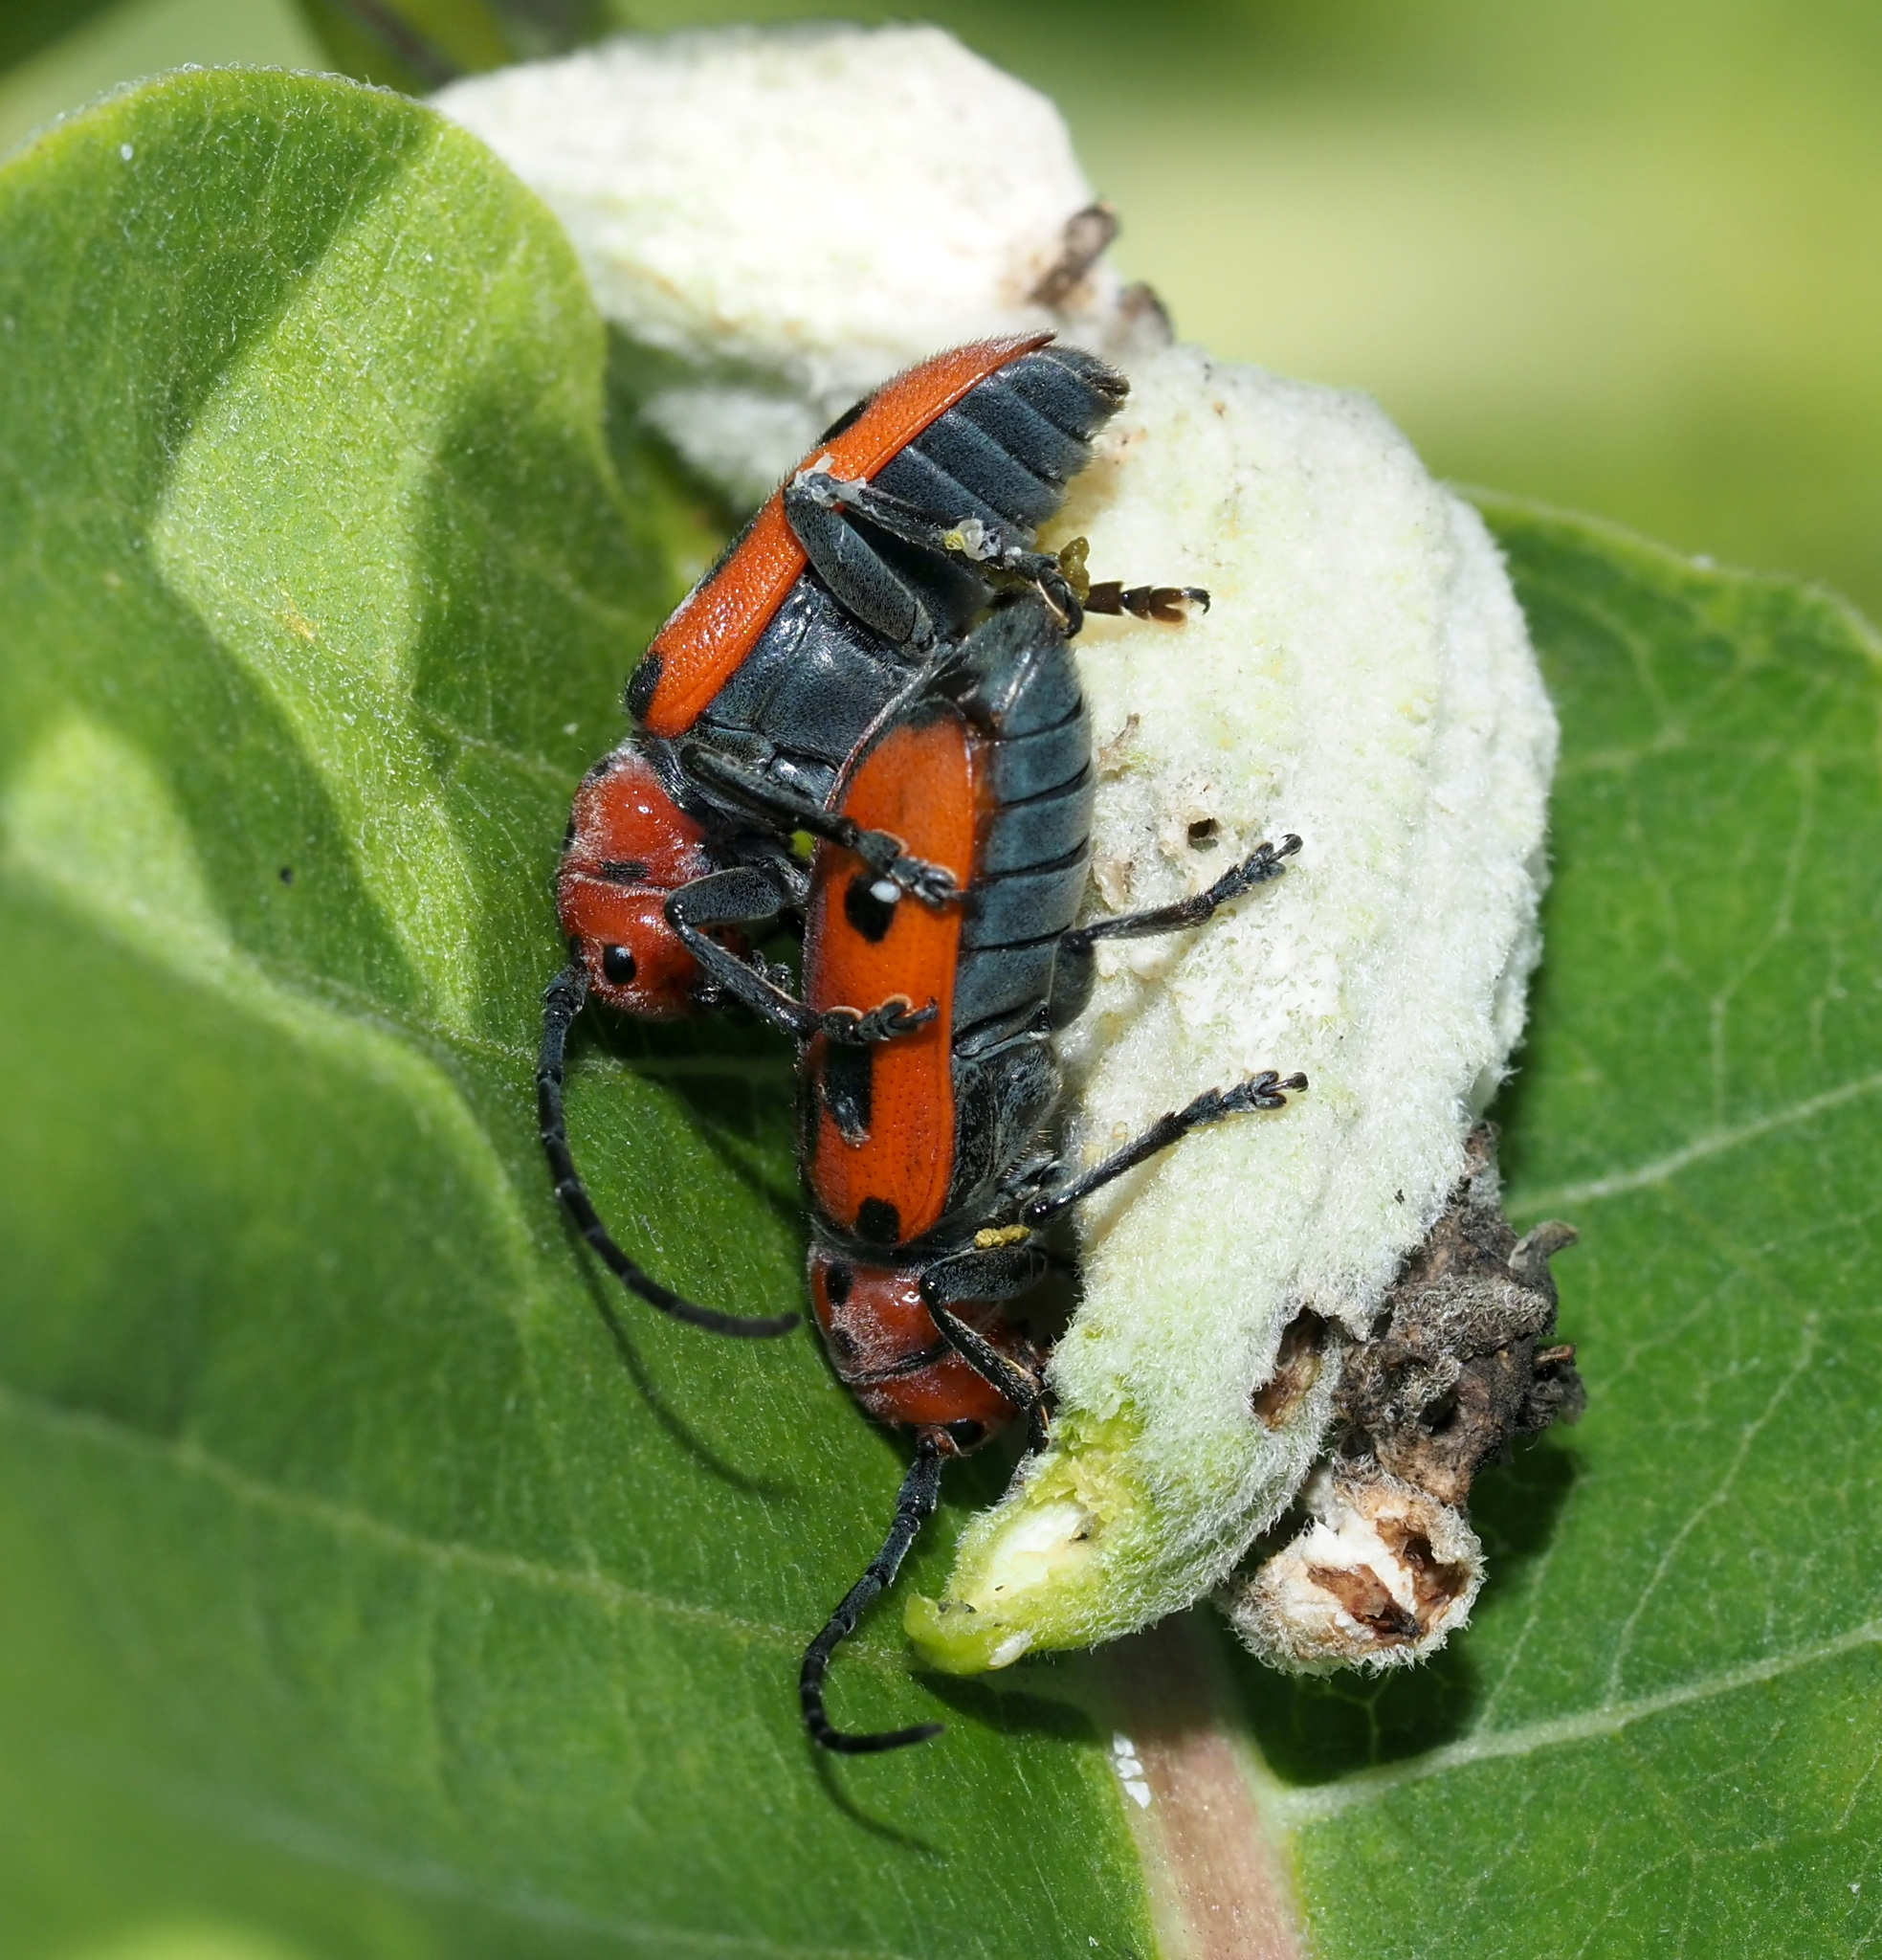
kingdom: Animalia
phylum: Arthropoda
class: Insecta
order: Coleoptera
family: Cerambycidae
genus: Tetraopes
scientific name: Tetraopes tetrophthalmus
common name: Red milkweed beetle
